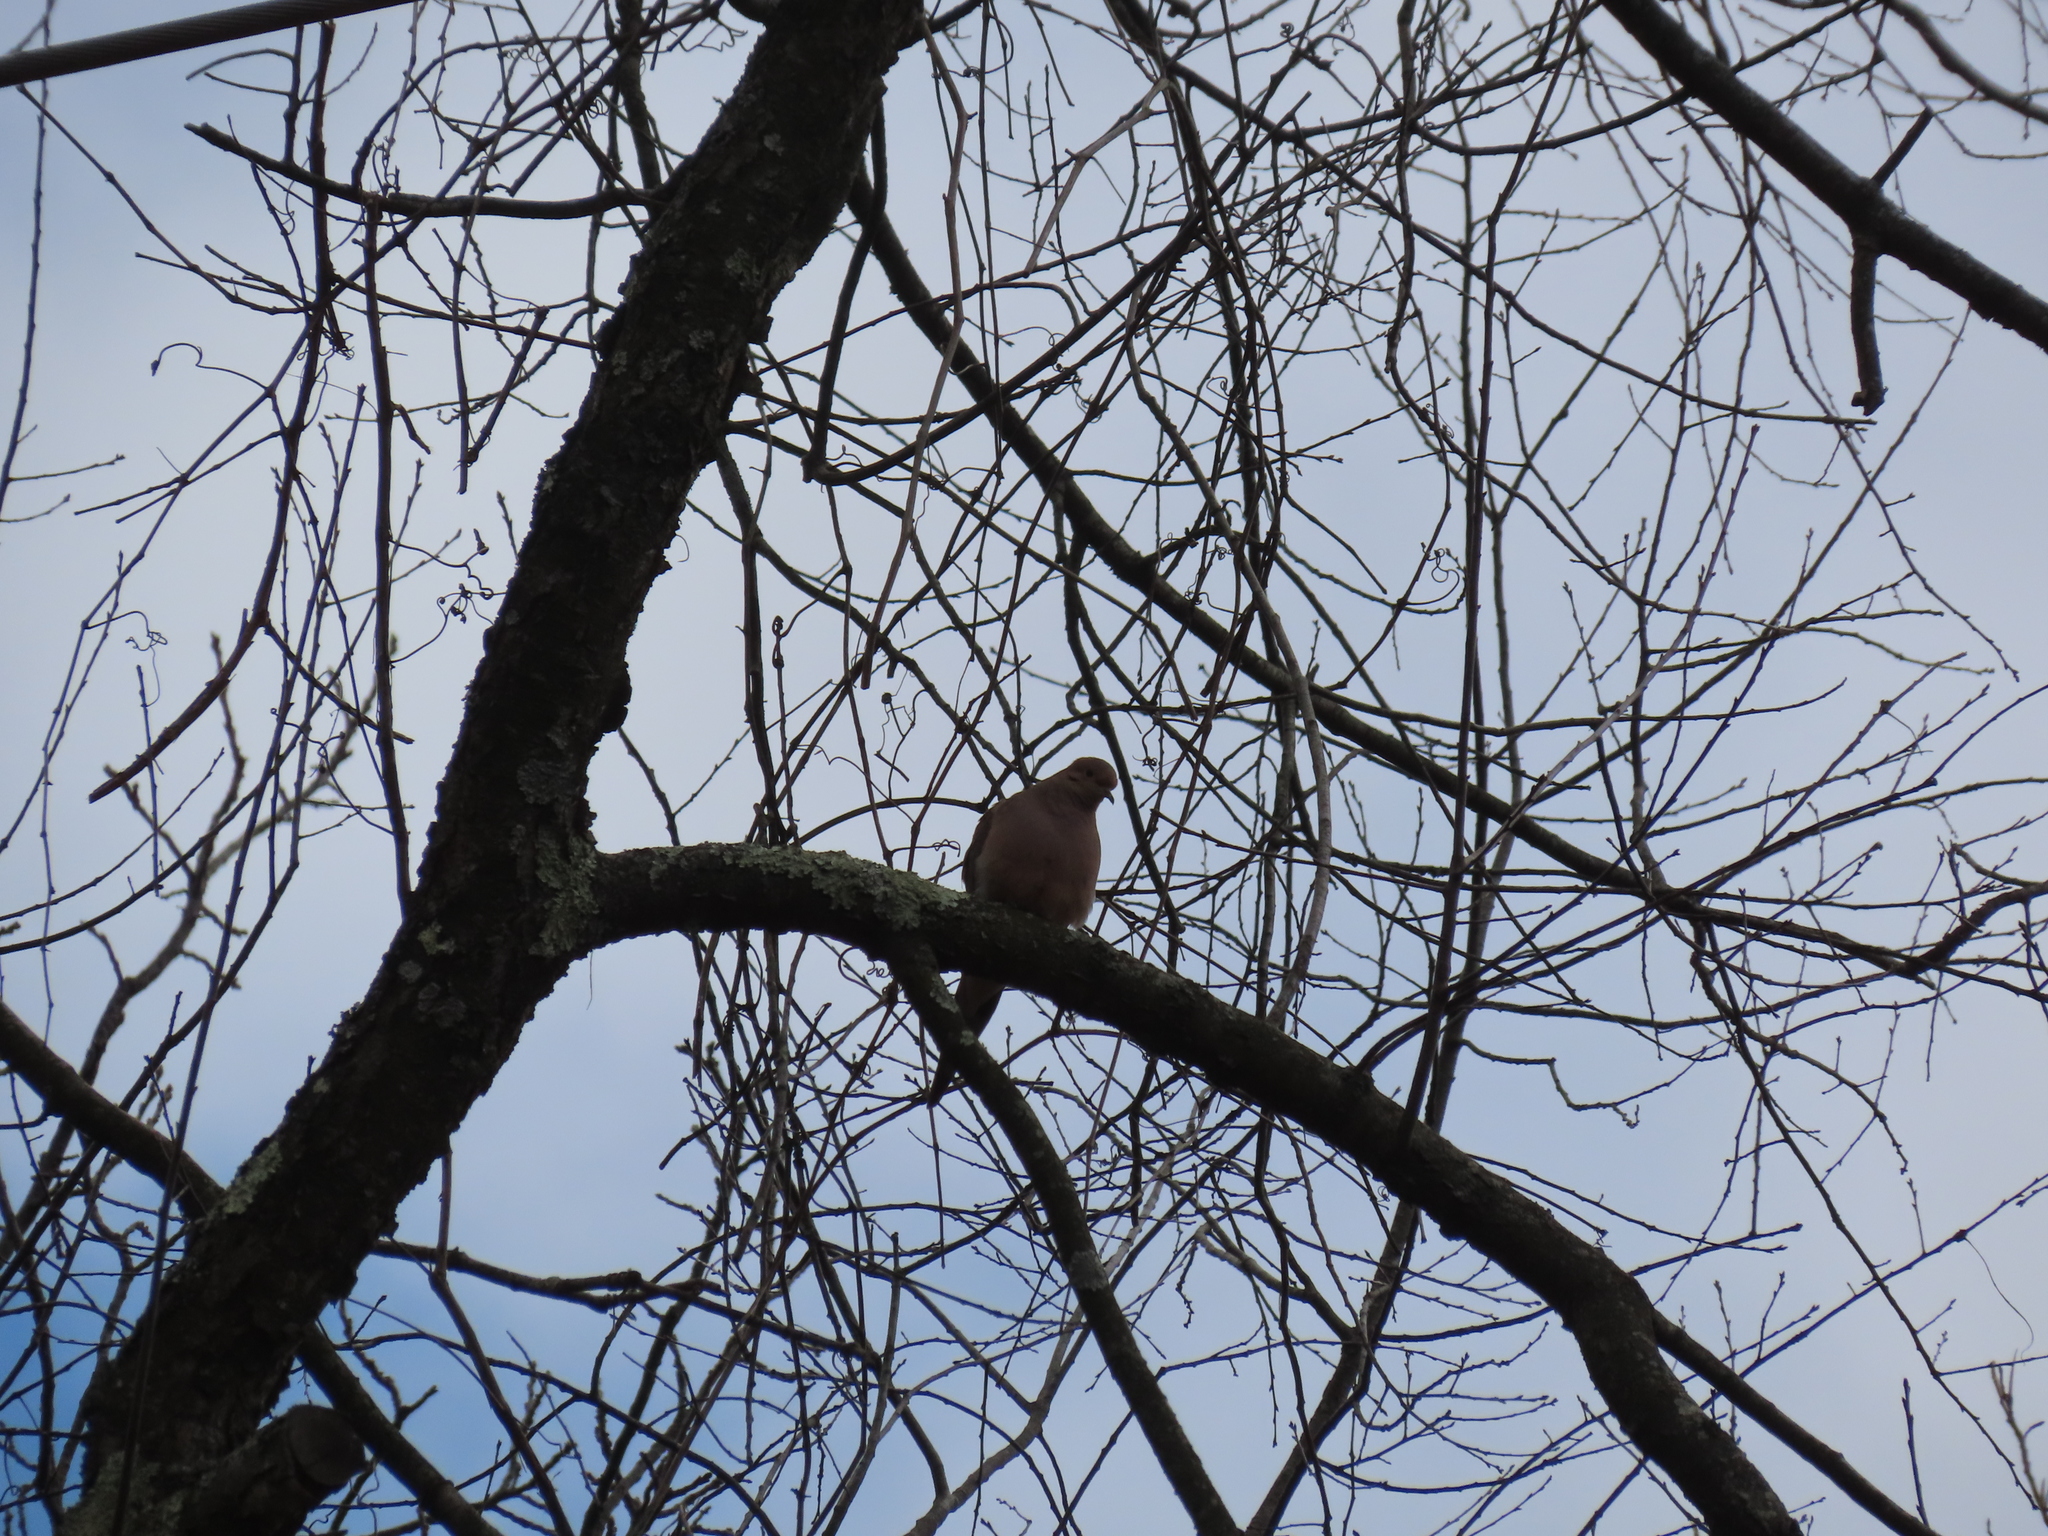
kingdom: Animalia
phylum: Chordata
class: Aves
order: Columbiformes
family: Columbidae
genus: Zenaida
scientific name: Zenaida macroura
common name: Mourning dove
